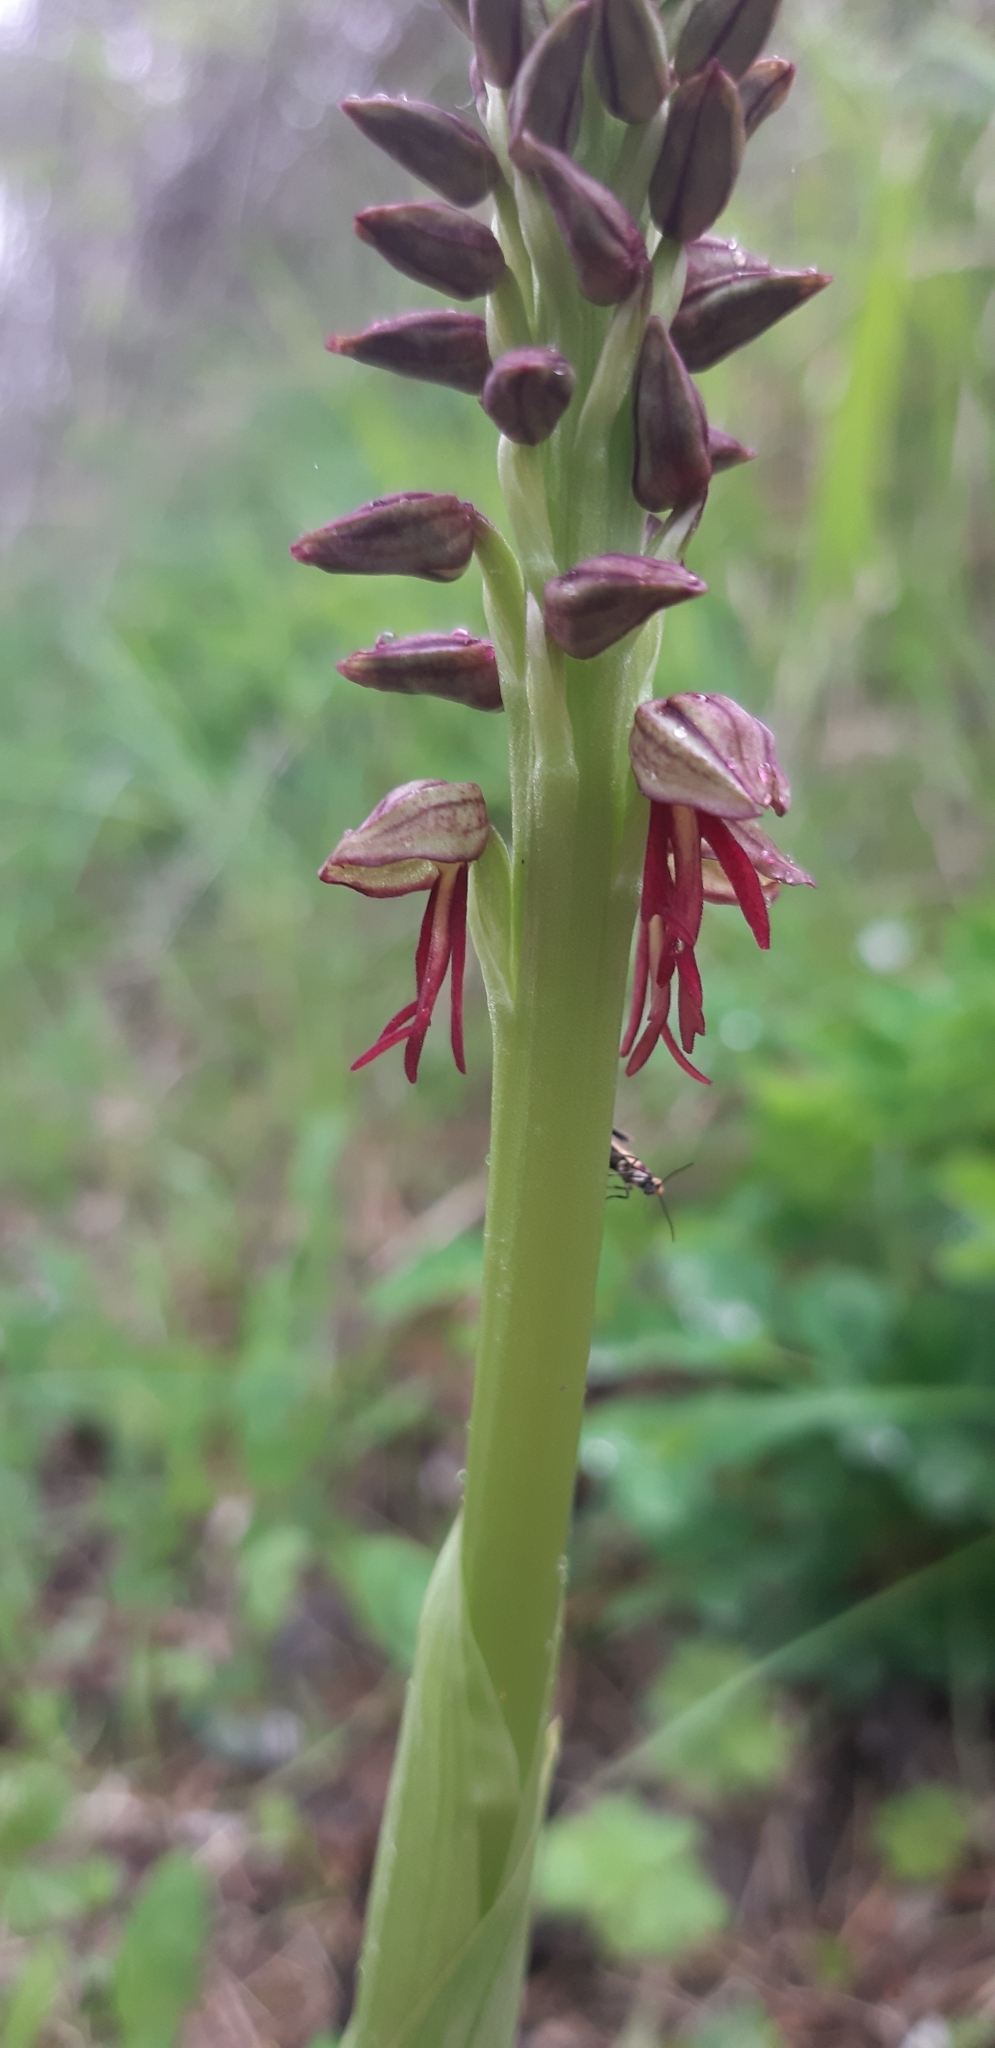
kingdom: Plantae
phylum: Tracheophyta
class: Liliopsida
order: Asparagales
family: Orchidaceae
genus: Orchis
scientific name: Orchis anthropophora
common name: Man orchid
